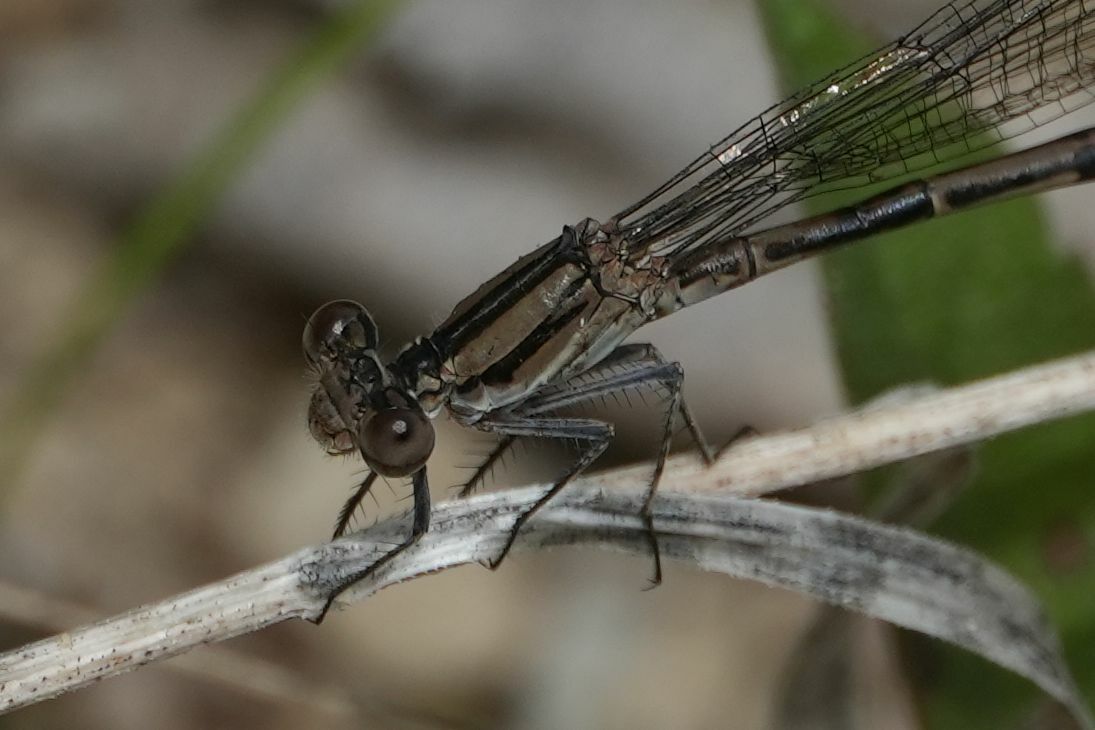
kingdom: Animalia
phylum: Arthropoda
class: Insecta
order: Odonata
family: Coenagrionidae
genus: Argia
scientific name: Argia fumipennis
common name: Variable dancer
